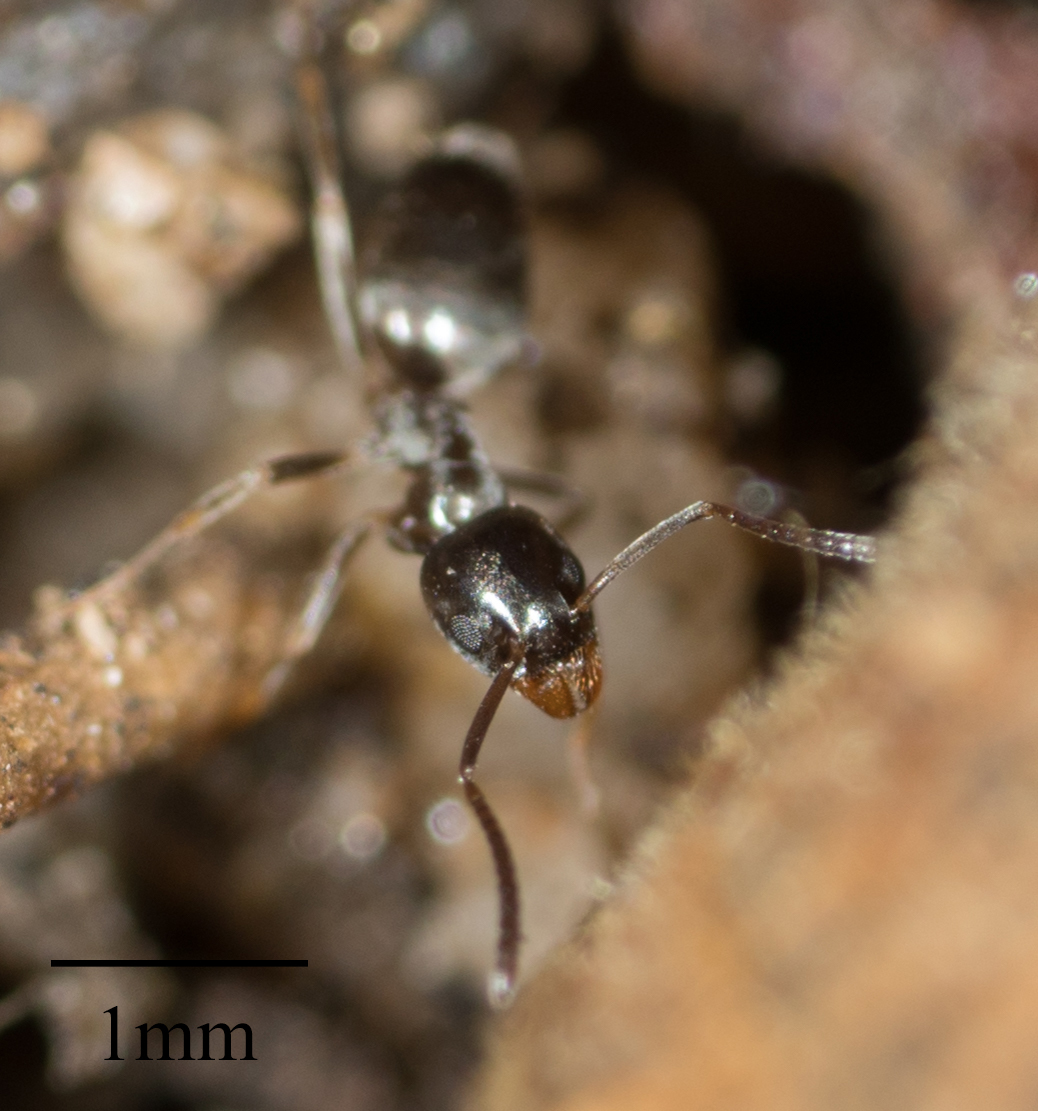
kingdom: Animalia
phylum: Arthropoda
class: Insecta
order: Hymenoptera
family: Formicidae
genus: Tapinoma
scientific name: Tapinoma sessile
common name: Odorous house ant
